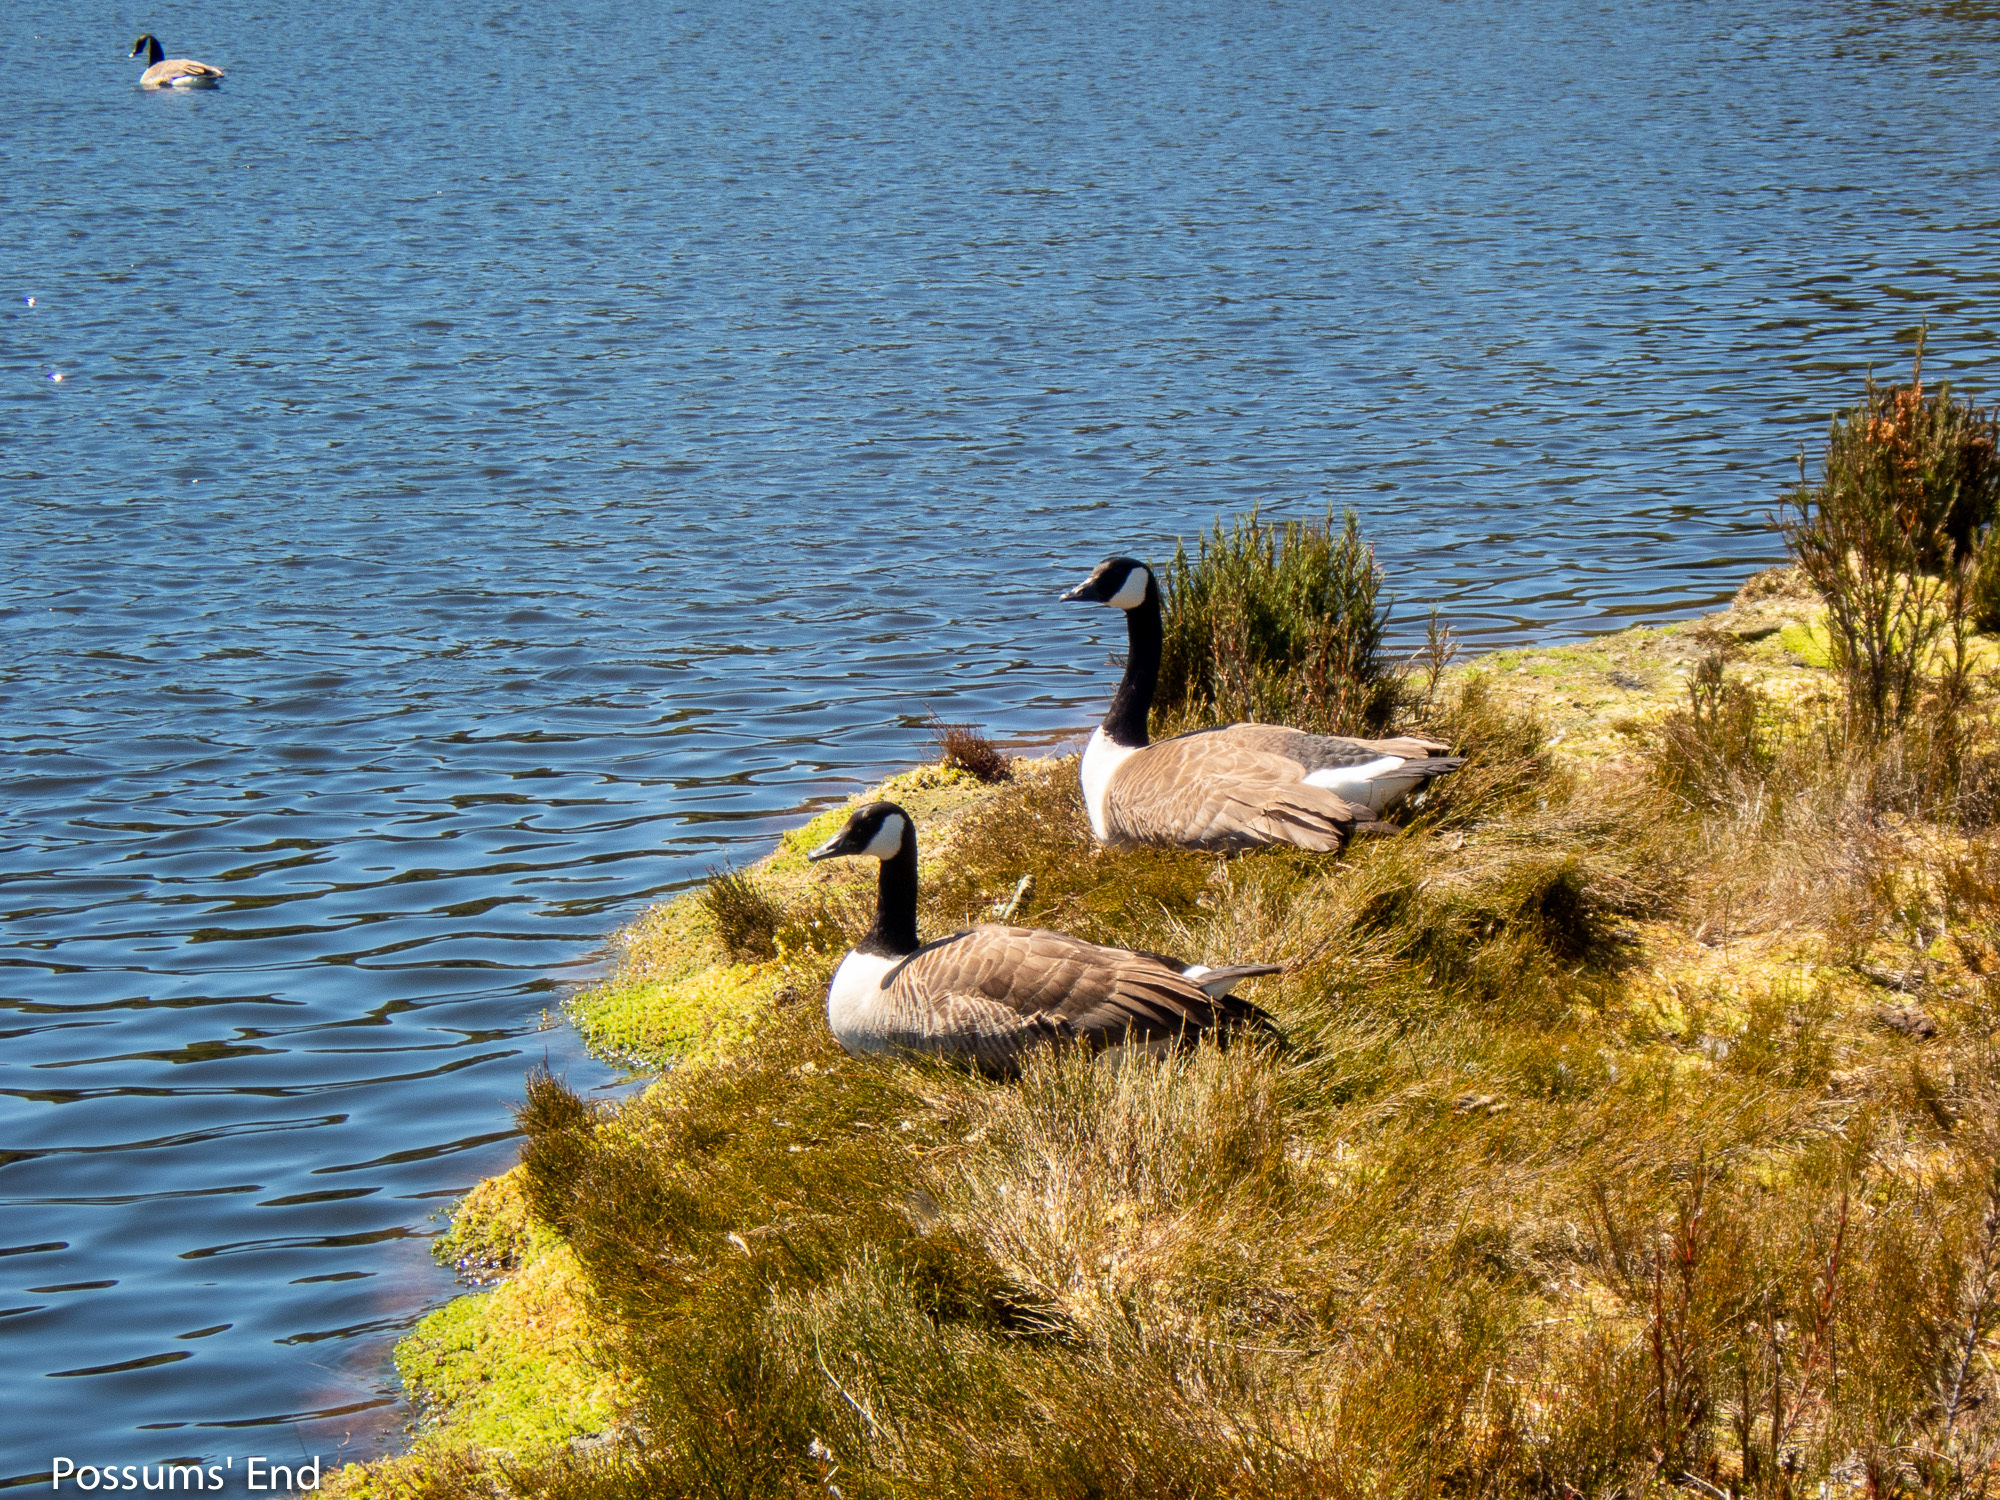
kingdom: Animalia
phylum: Chordata
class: Aves
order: Anseriformes
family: Anatidae
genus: Branta
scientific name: Branta canadensis
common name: Canada goose
